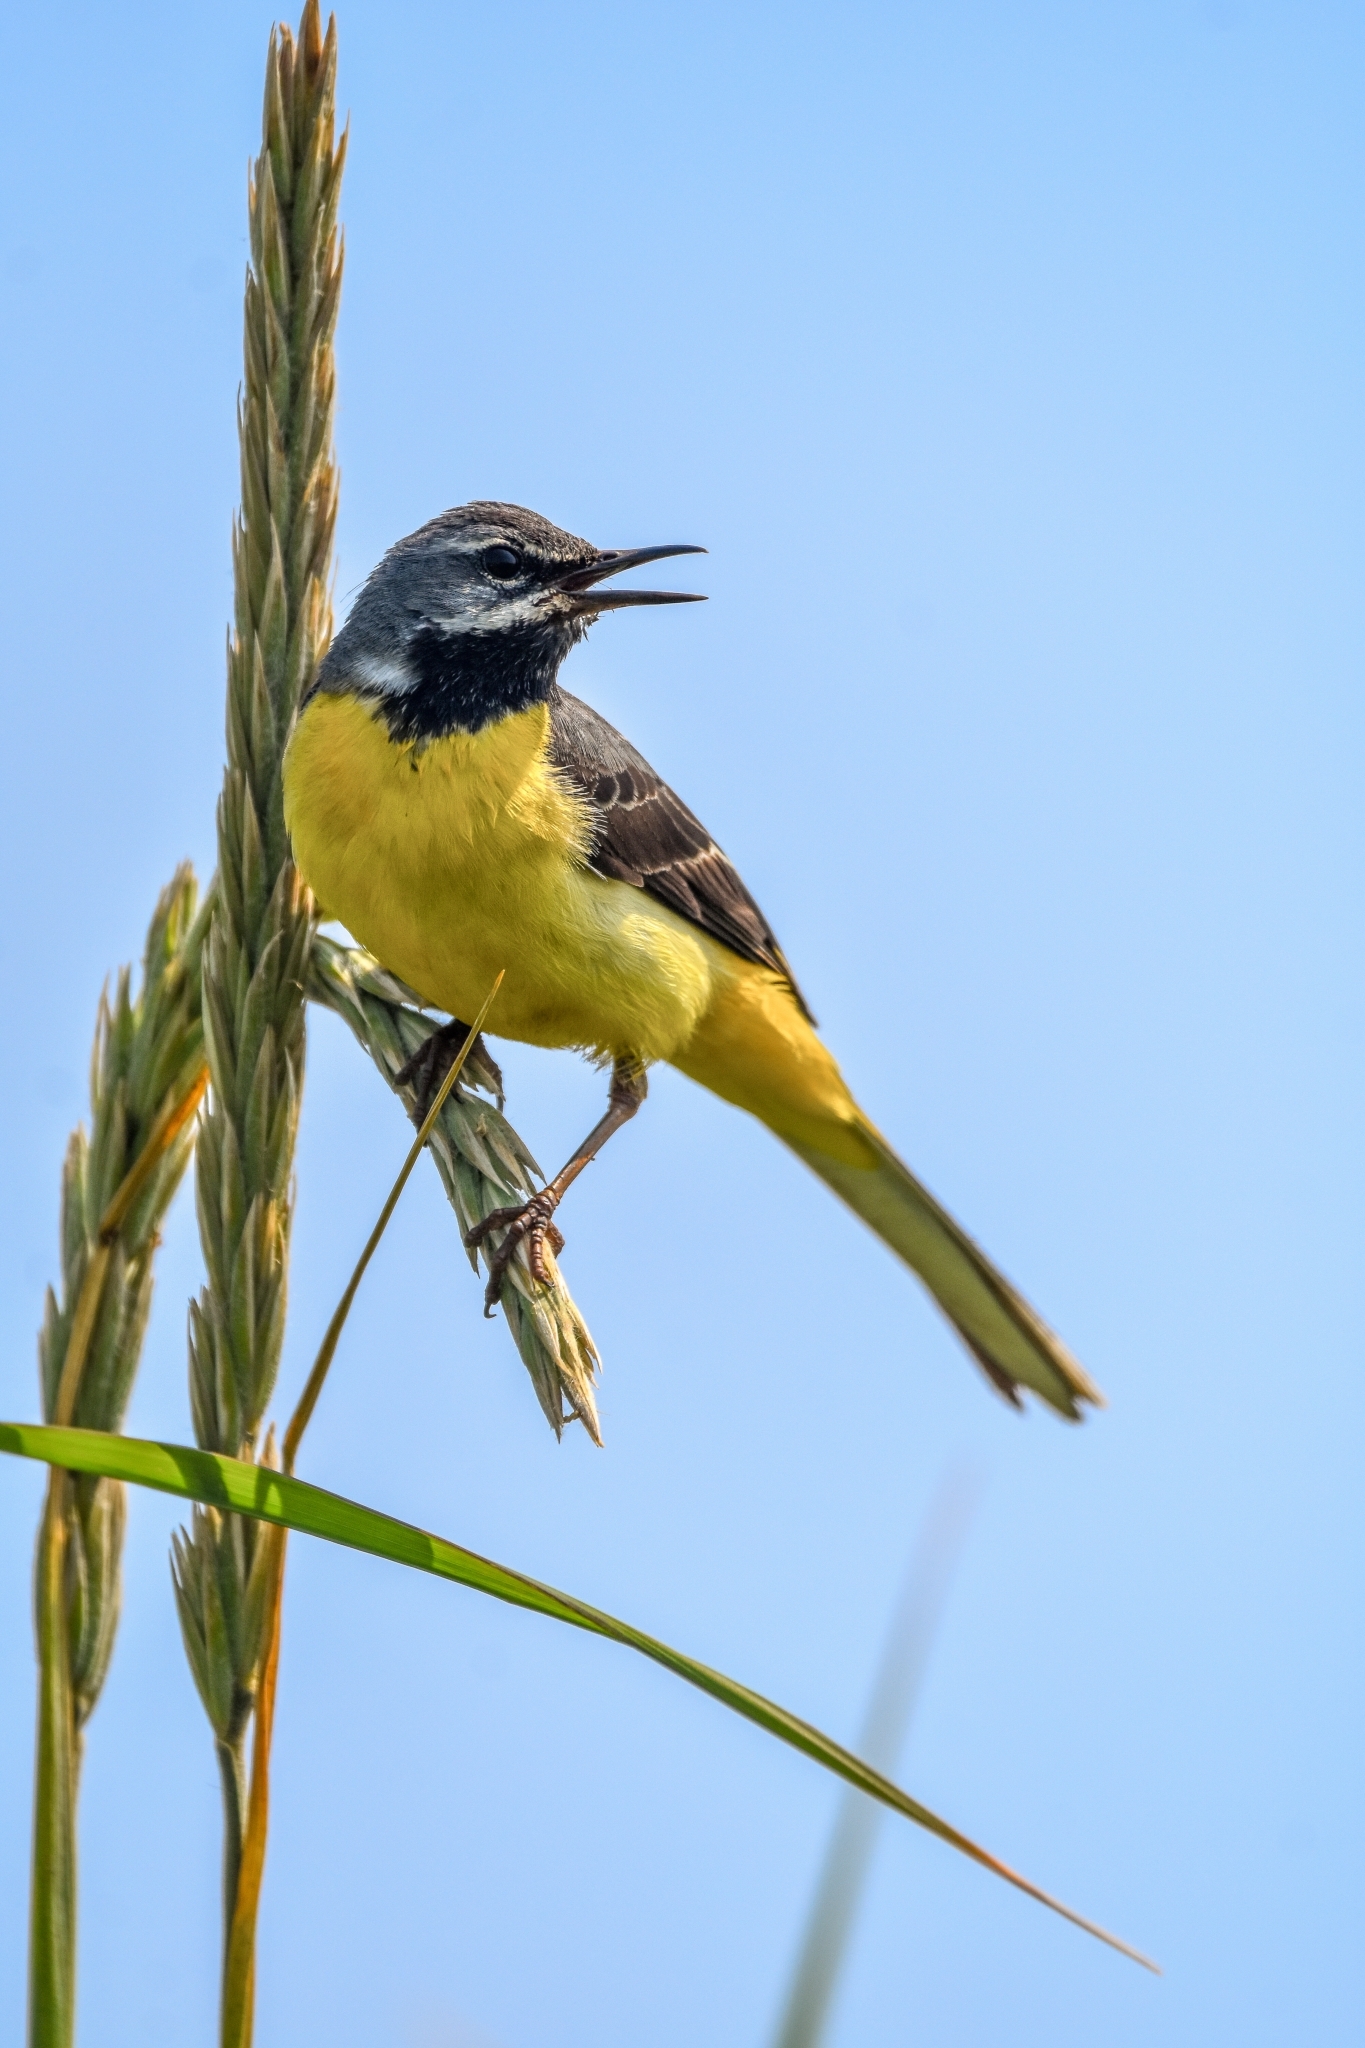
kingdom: Animalia
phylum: Chordata
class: Aves
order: Passeriformes
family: Motacillidae
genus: Motacilla
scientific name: Motacilla cinerea
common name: Grey wagtail
